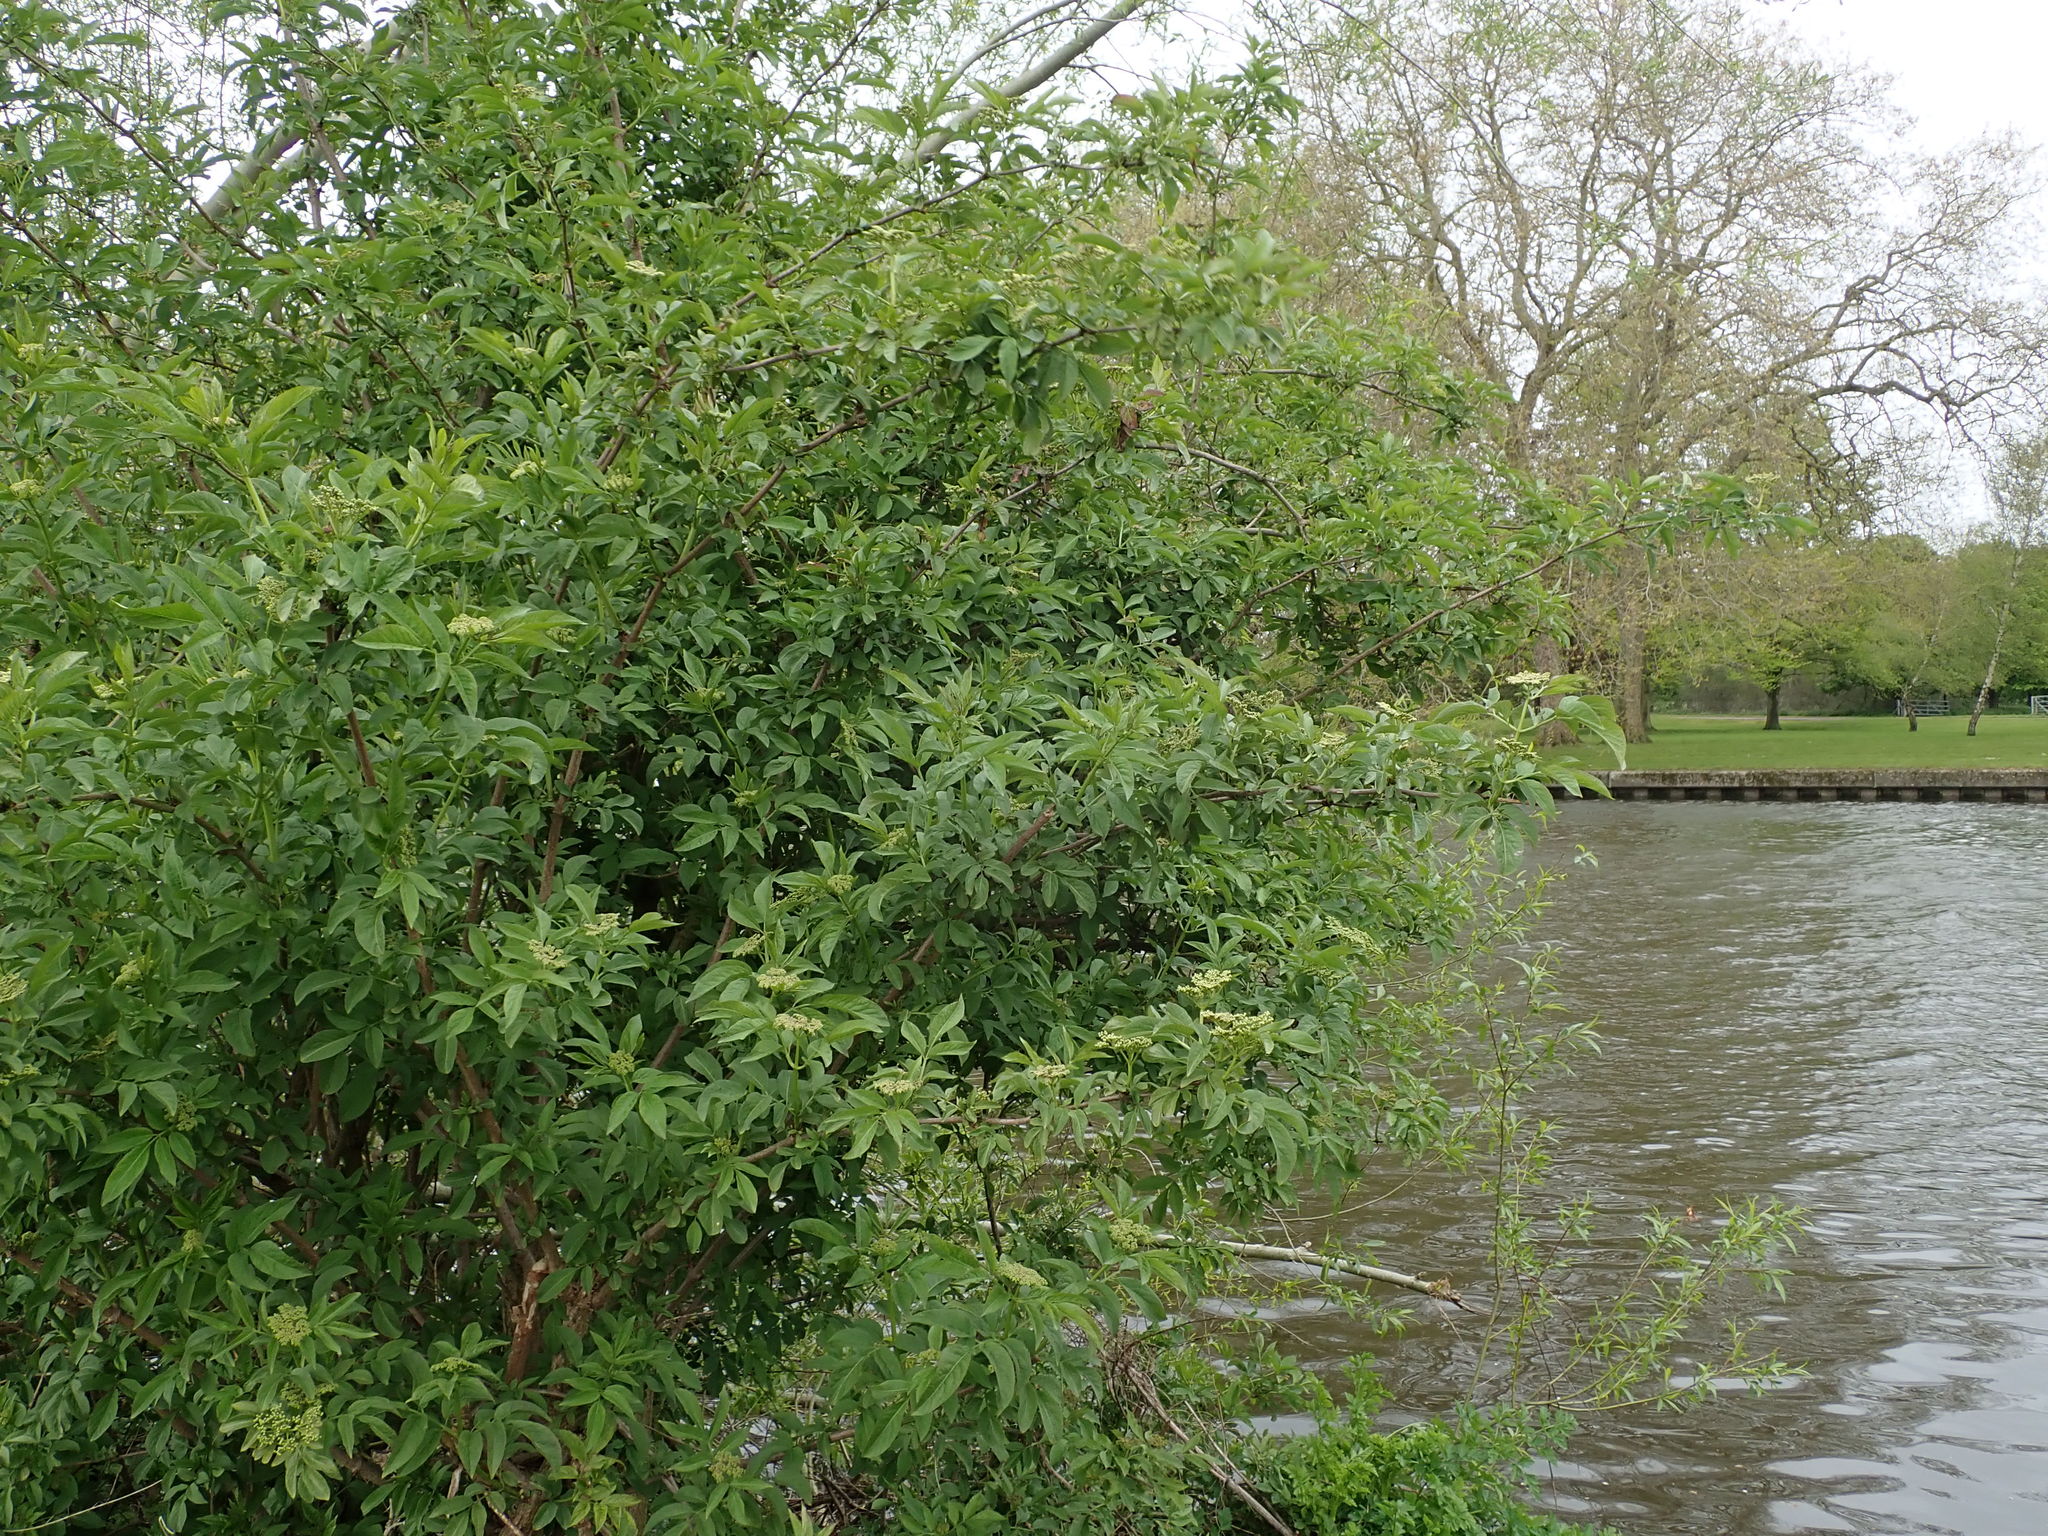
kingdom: Plantae
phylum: Tracheophyta
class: Magnoliopsida
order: Dipsacales
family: Viburnaceae
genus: Sambucus
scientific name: Sambucus nigra
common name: Elder
